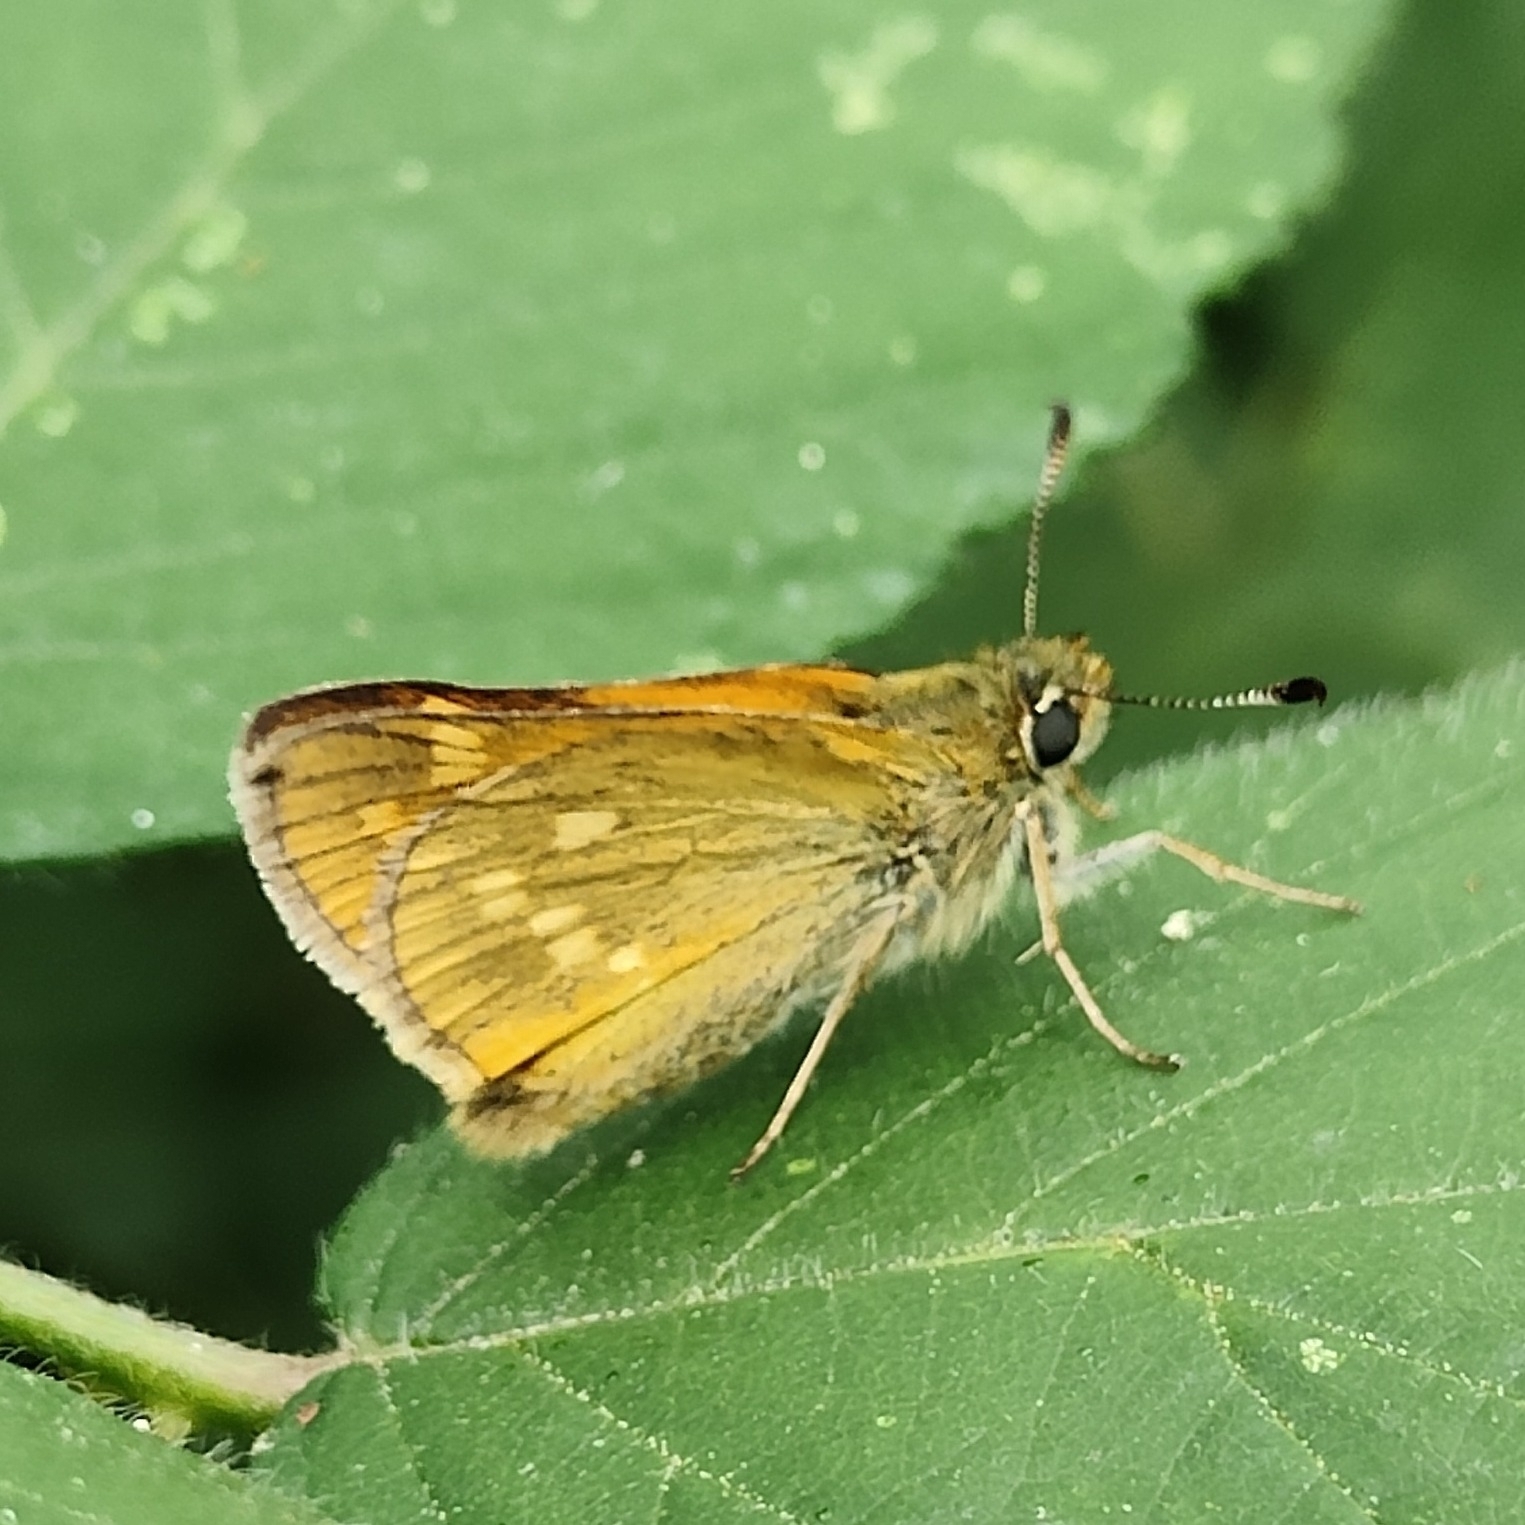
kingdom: Animalia
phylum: Arthropoda
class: Insecta
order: Lepidoptera
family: Hesperiidae
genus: Ochlodes
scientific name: Ochlodes venata
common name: Large skipper
